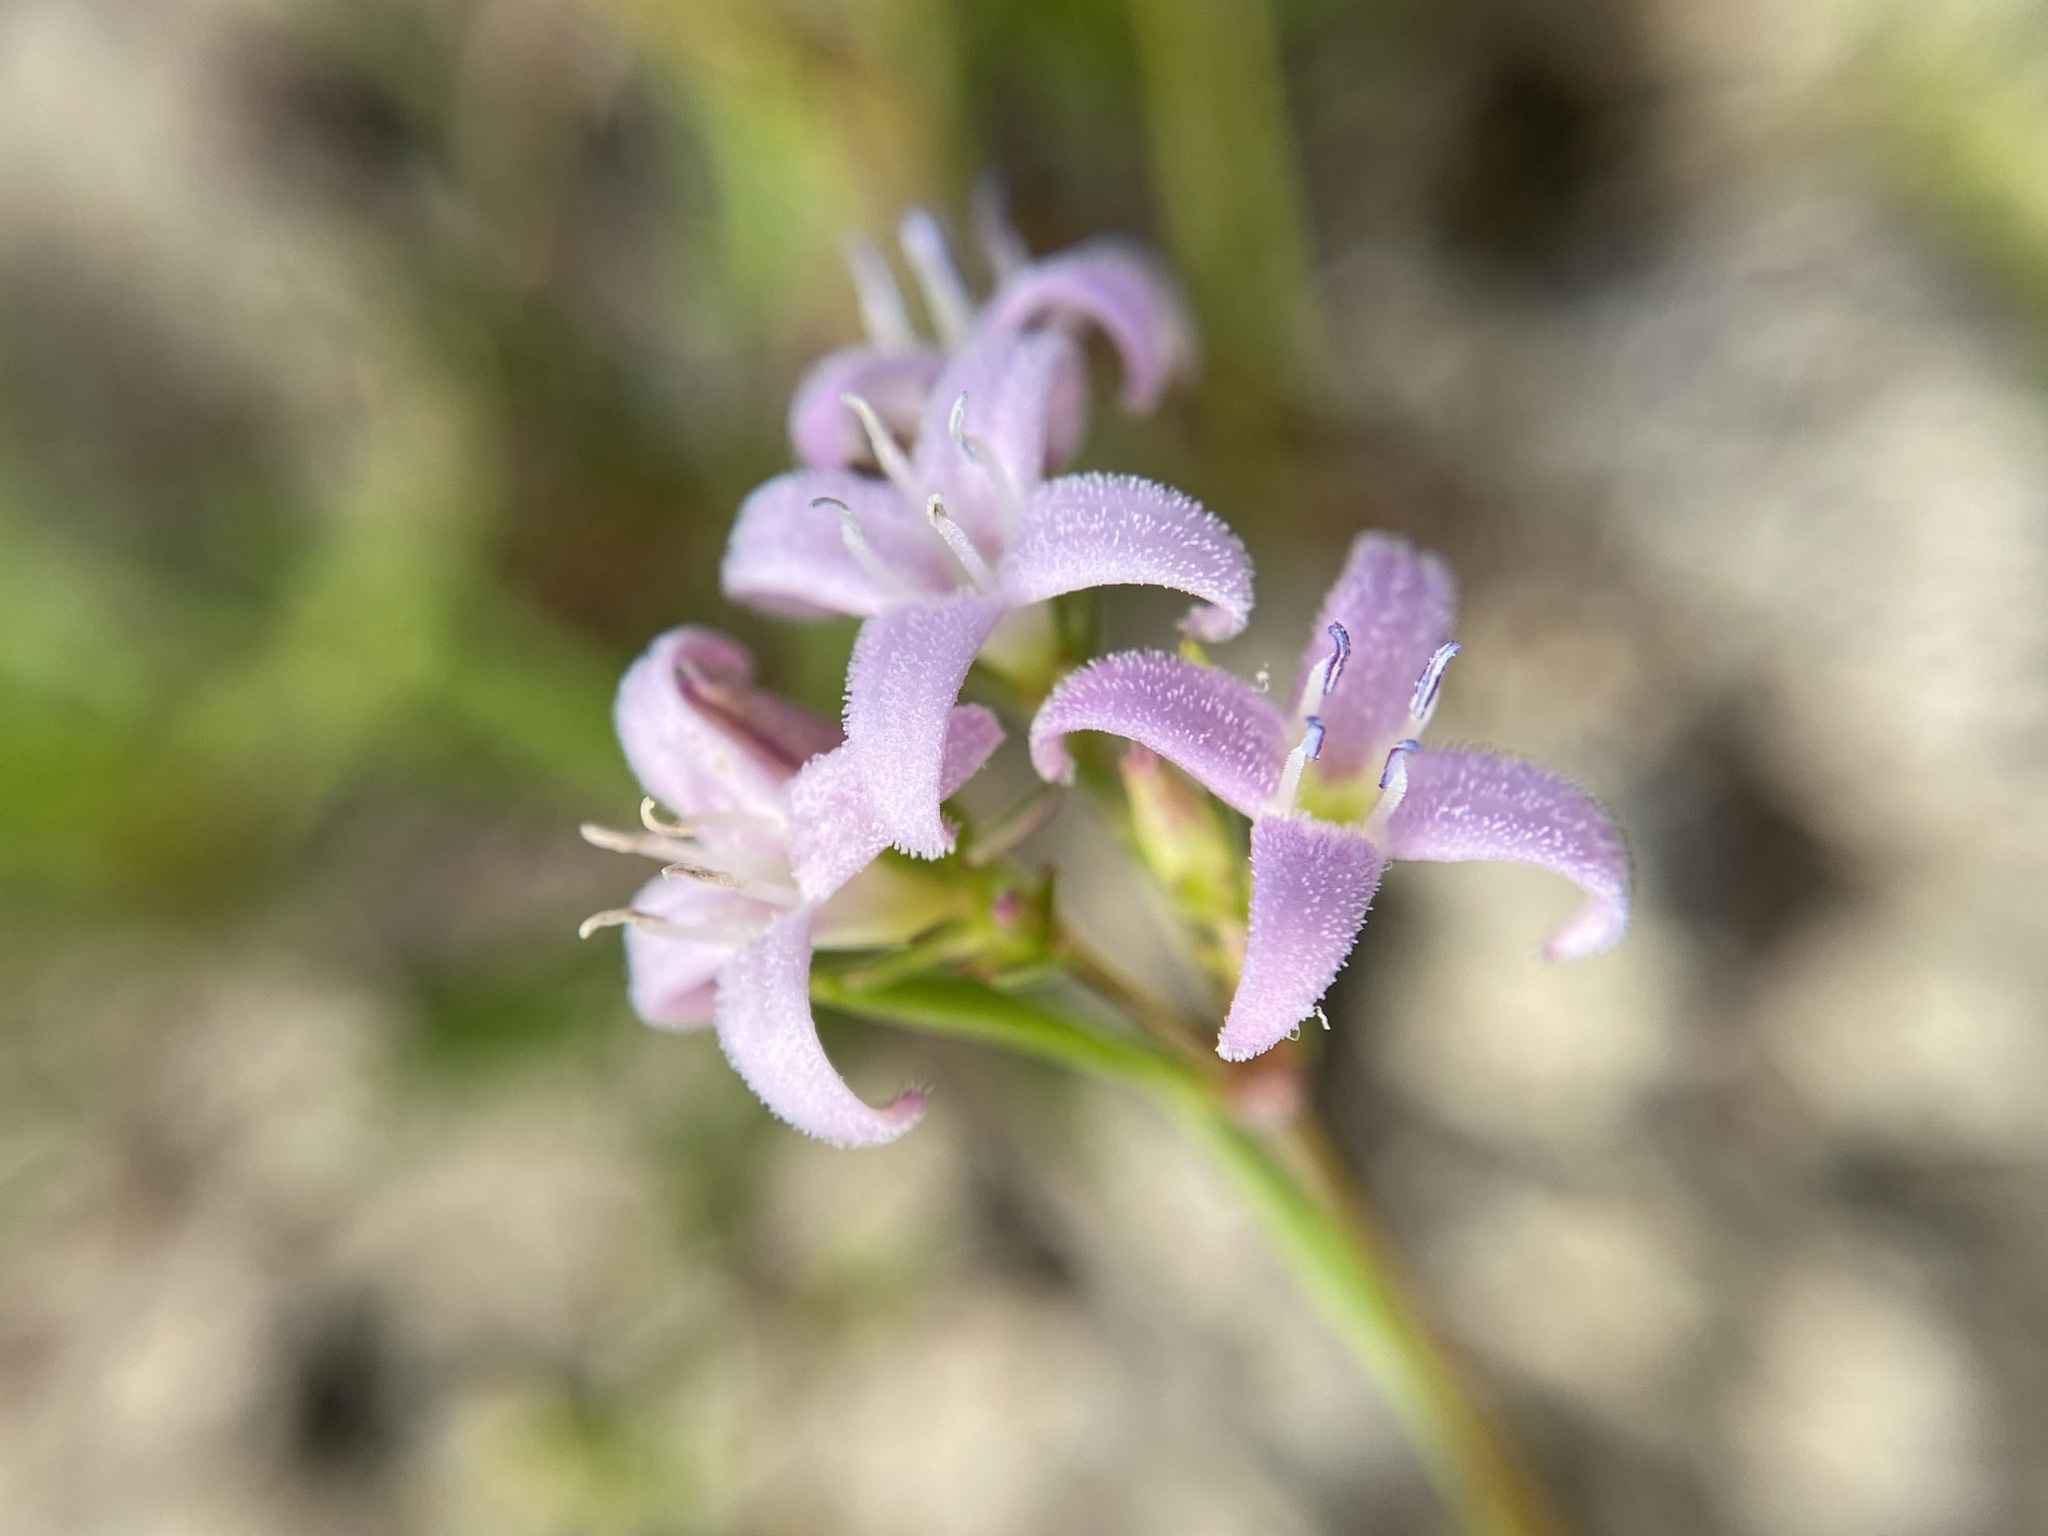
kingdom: Plantae
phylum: Tracheophyta
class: Magnoliopsida
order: Gentianales
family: Rubiaceae
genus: Stenaria
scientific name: Stenaria nigricans
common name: Diamondflowers
